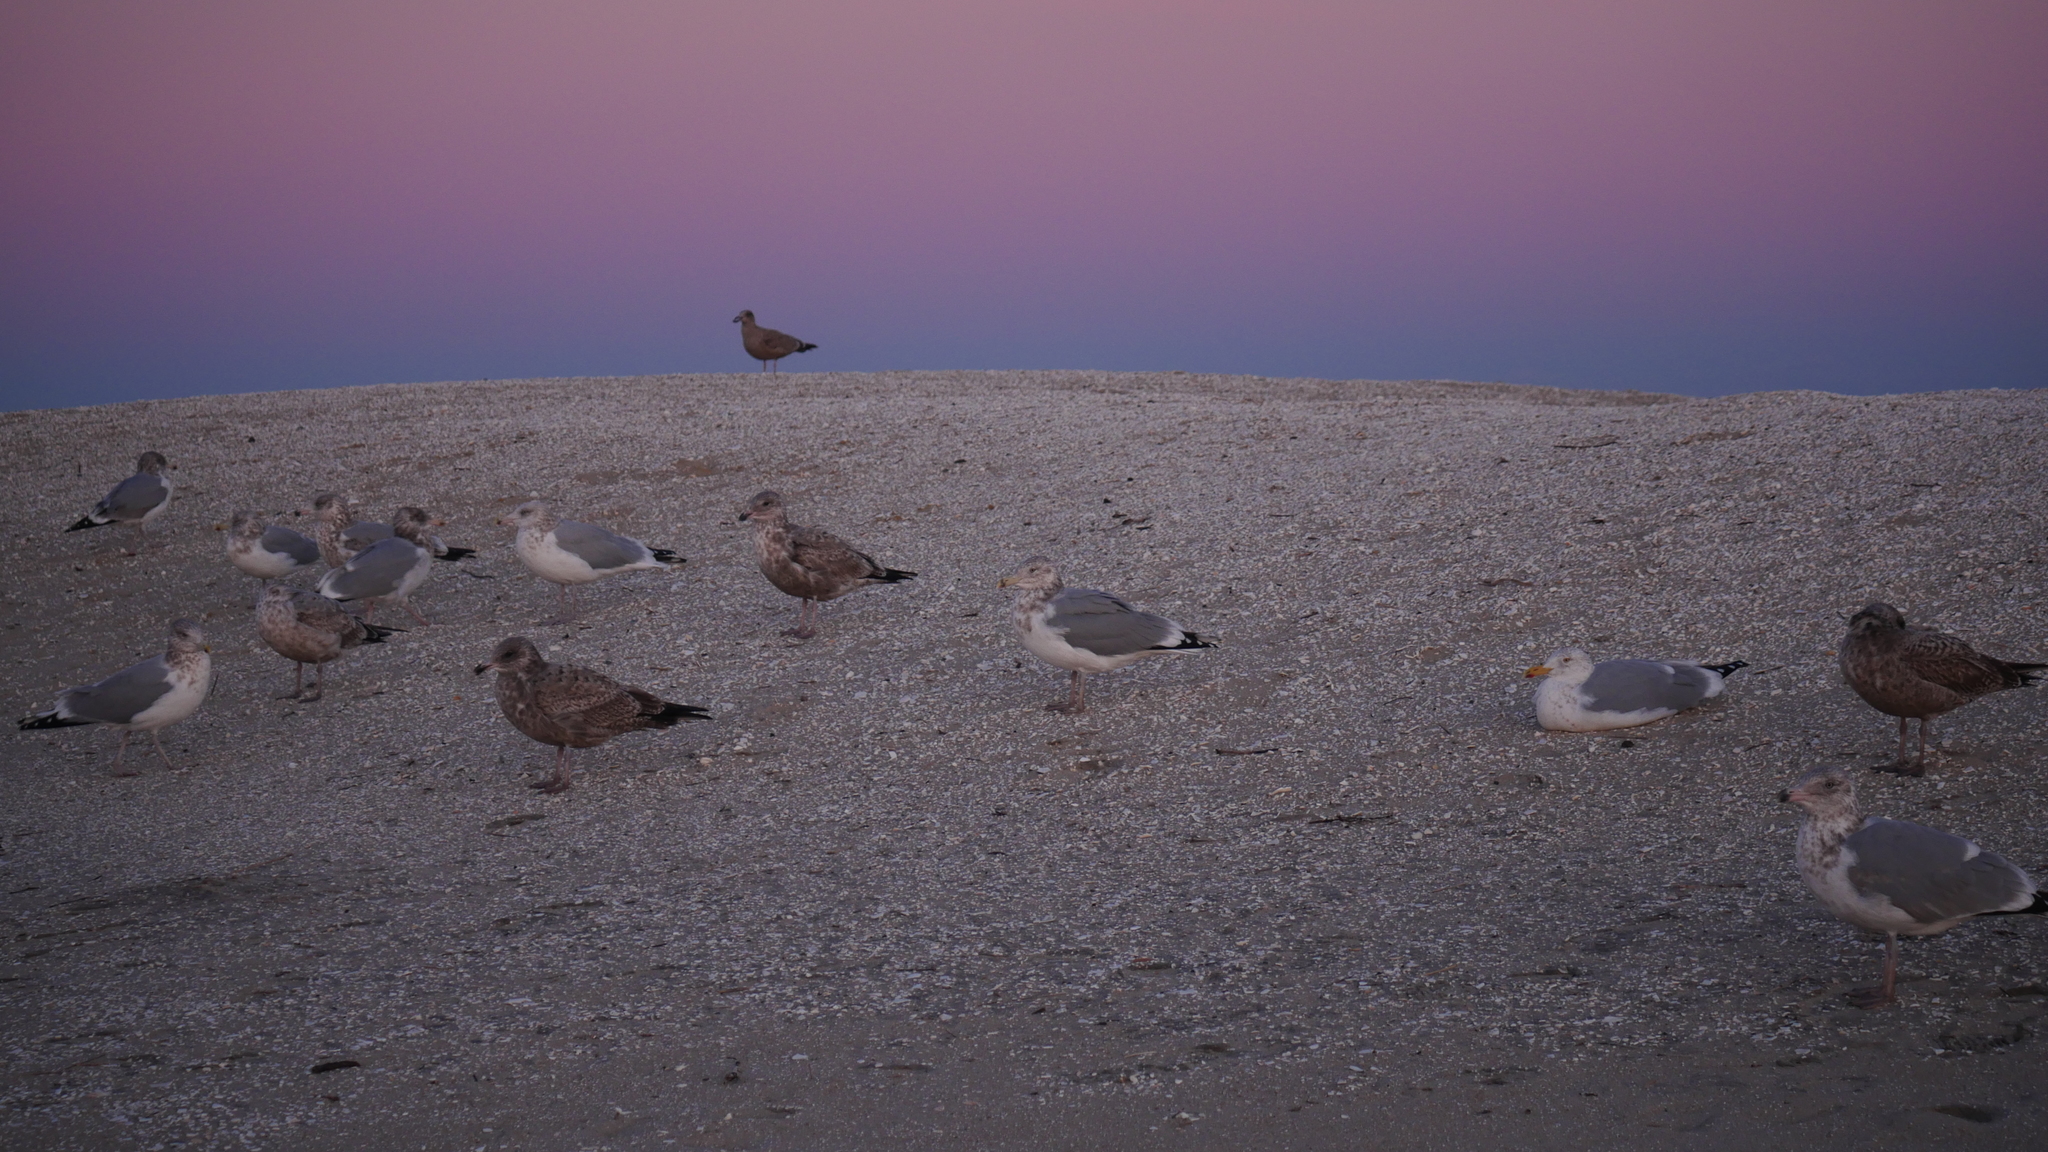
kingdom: Animalia
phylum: Chordata
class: Aves
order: Charadriiformes
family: Laridae
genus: Larus
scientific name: Larus argentatus
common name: Herring gull
